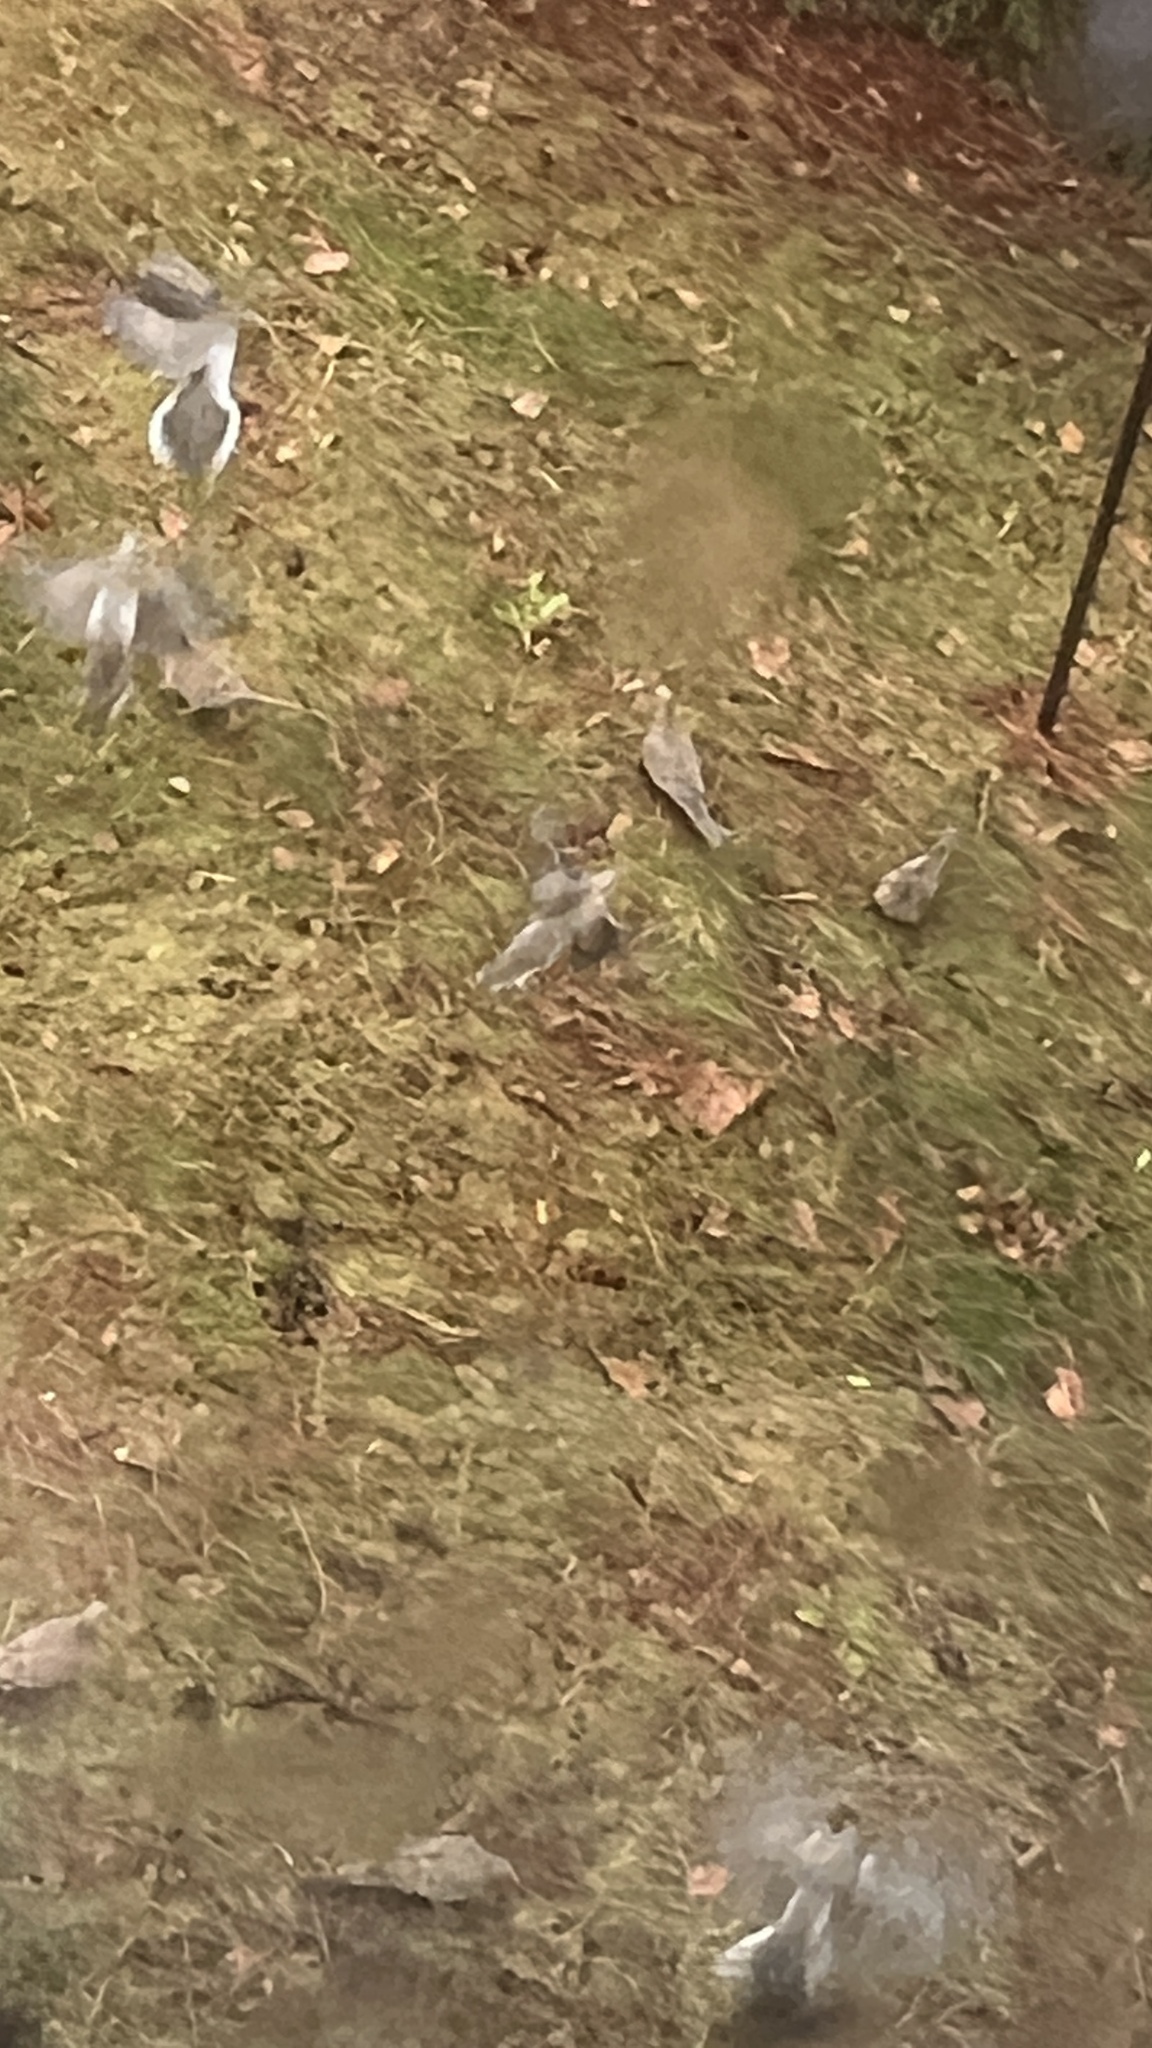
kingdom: Animalia
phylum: Chordata
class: Aves
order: Columbiformes
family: Columbidae
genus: Zenaida
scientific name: Zenaida macroura
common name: Mourning dove
